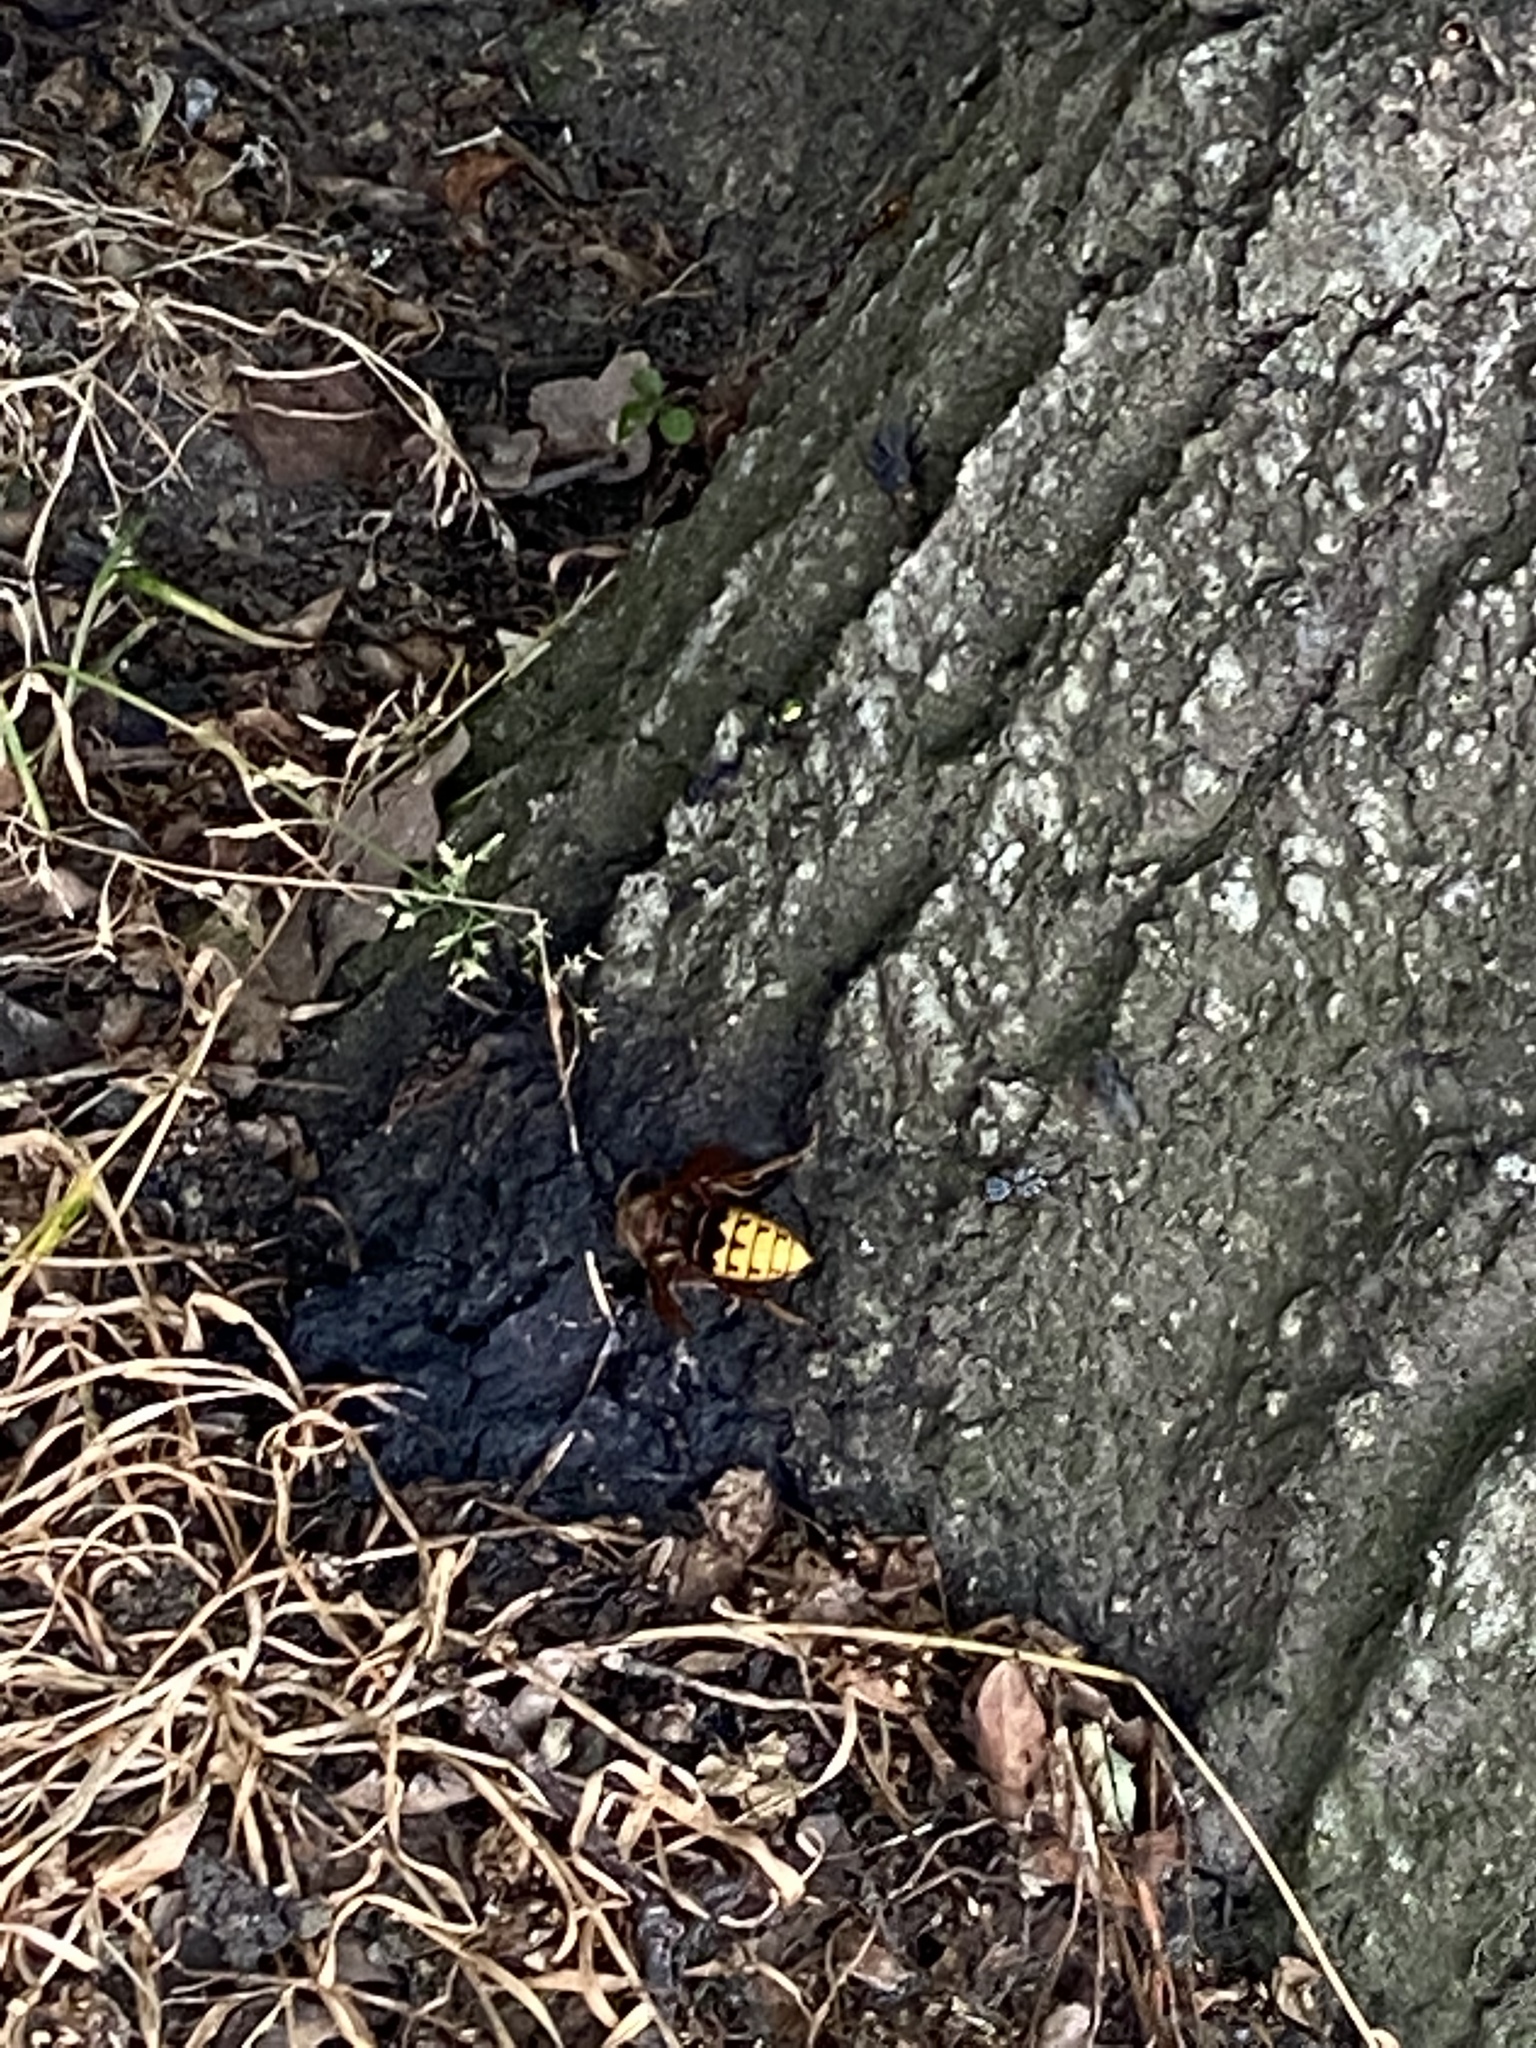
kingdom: Animalia
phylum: Arthropoda
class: Insecta
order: Hymenoptera
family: Vespidae
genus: Vespa
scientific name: Vespa crabro
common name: Hornet
